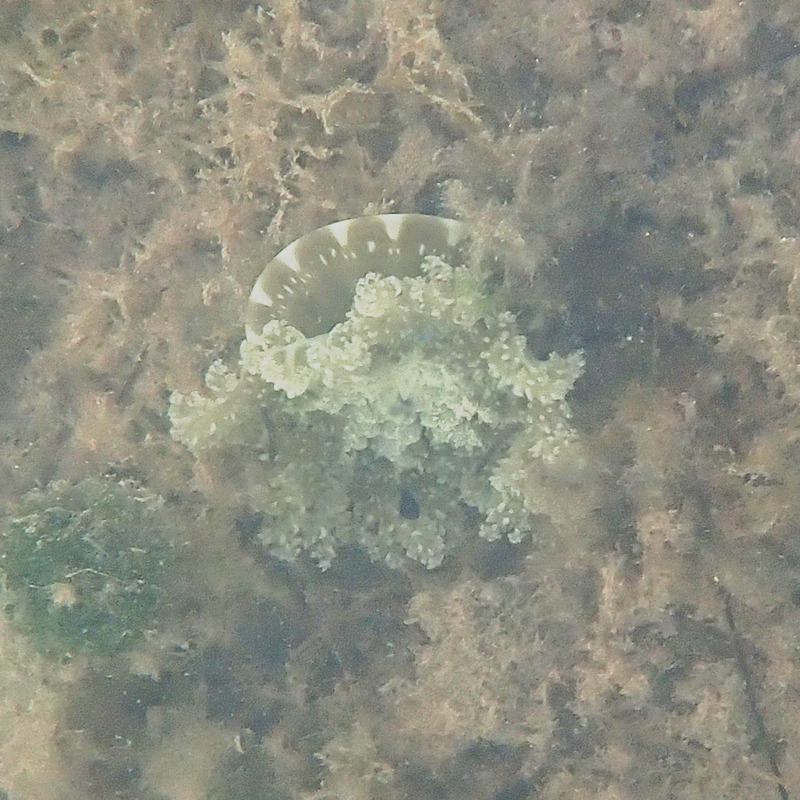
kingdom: Animalia
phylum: Cnidaria
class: Scyphozoa
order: Rhizostomeae
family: Cassiopeidae
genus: Cassiopea
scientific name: Cassiopea andromeda
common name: Upside-down jellyfish
